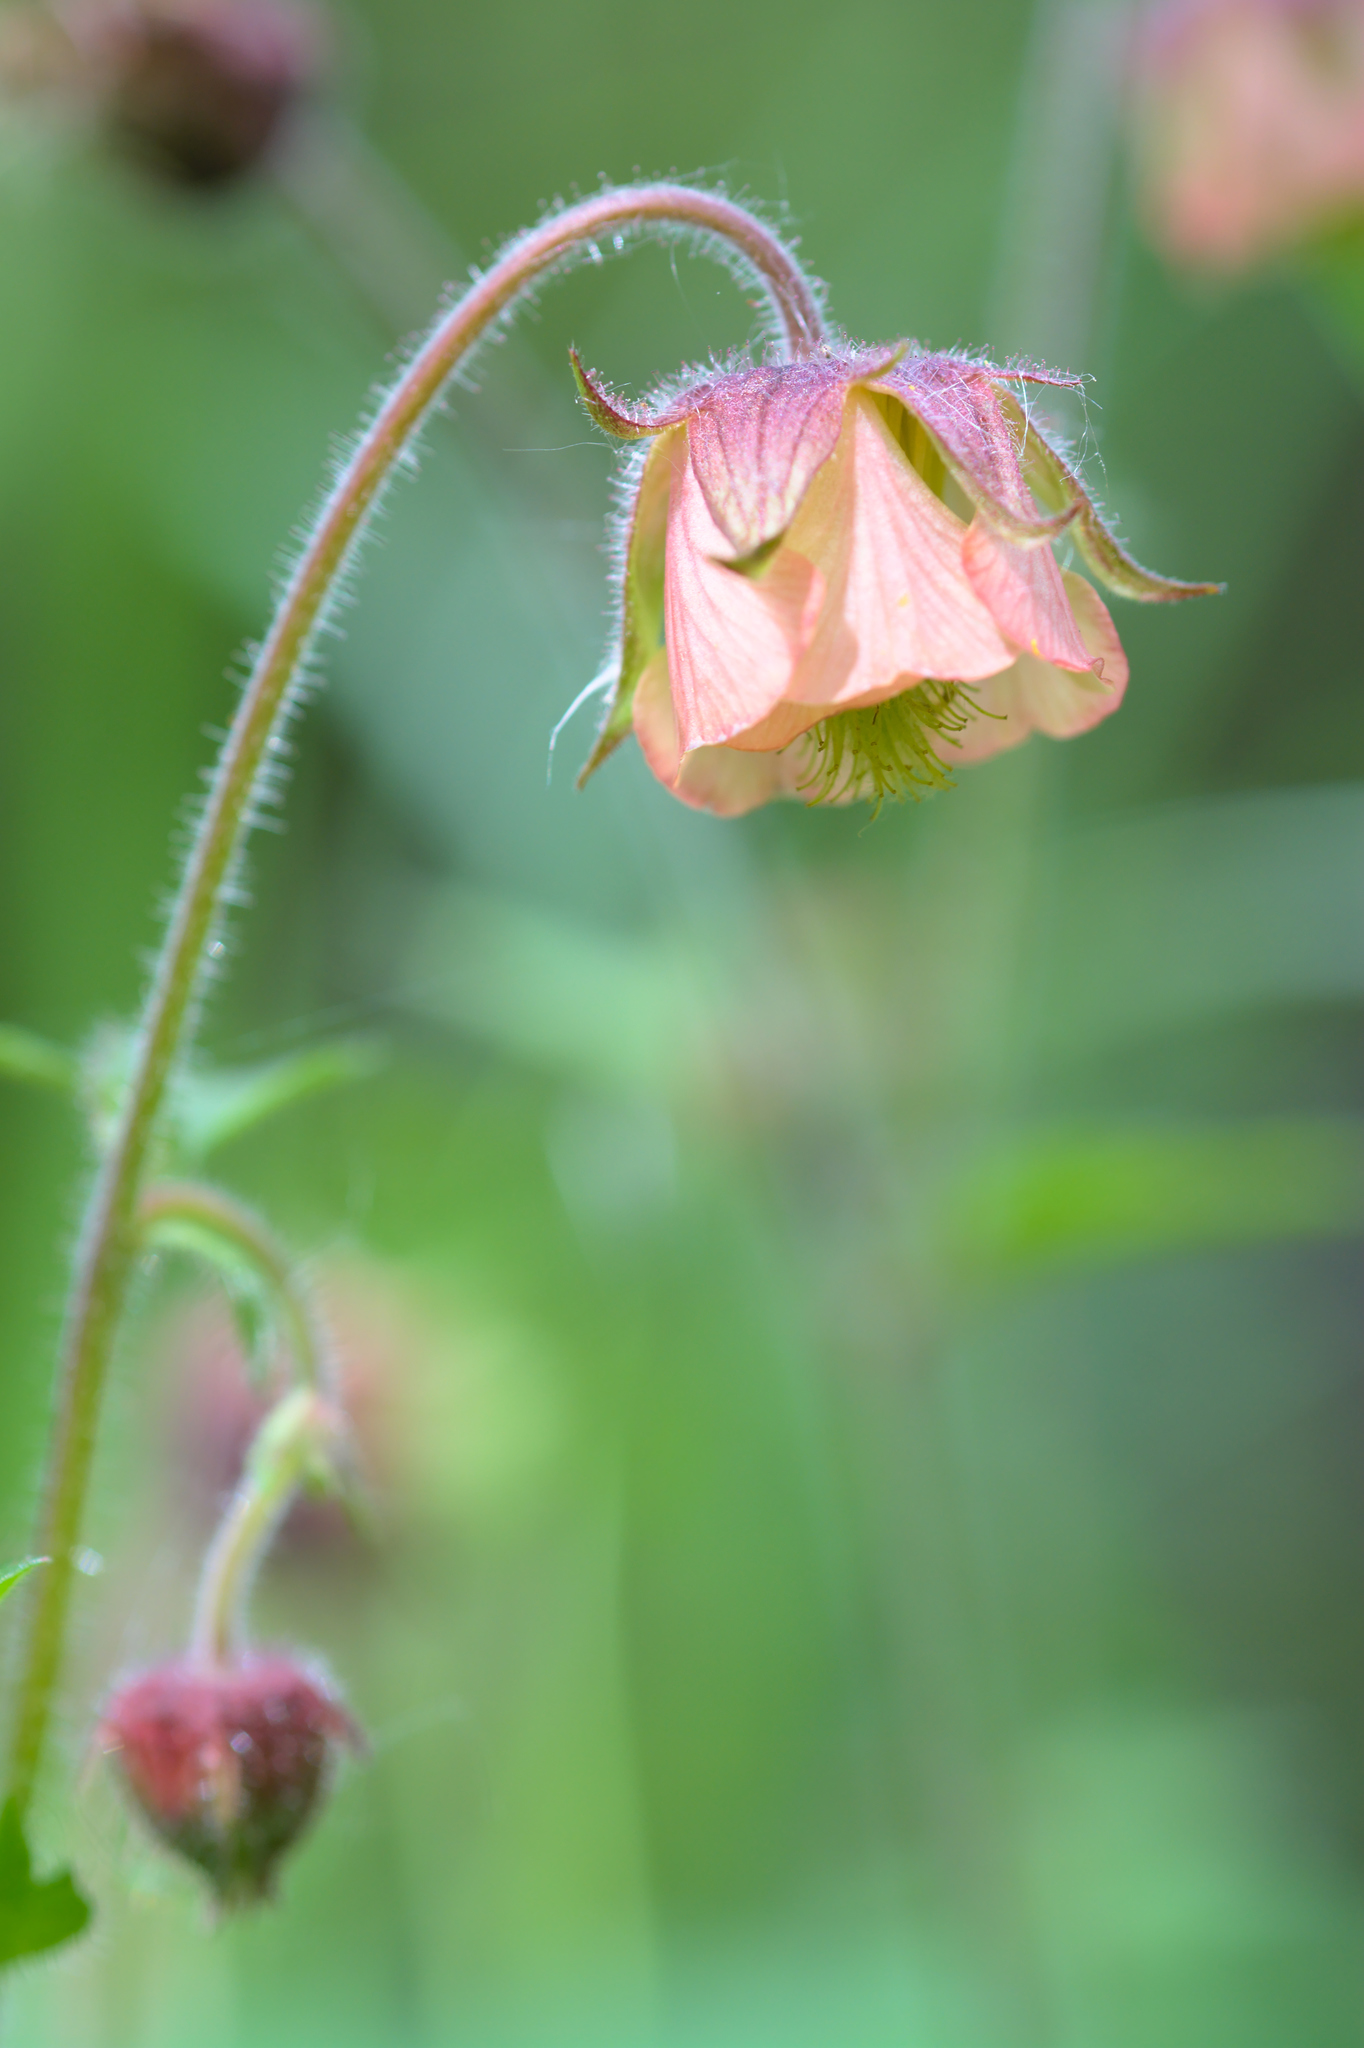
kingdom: Plantae
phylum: Tracheophyta
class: Magnoliopsida
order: Rosales
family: Rosaceae
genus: Geum
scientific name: Geum rivale
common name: Water avens
